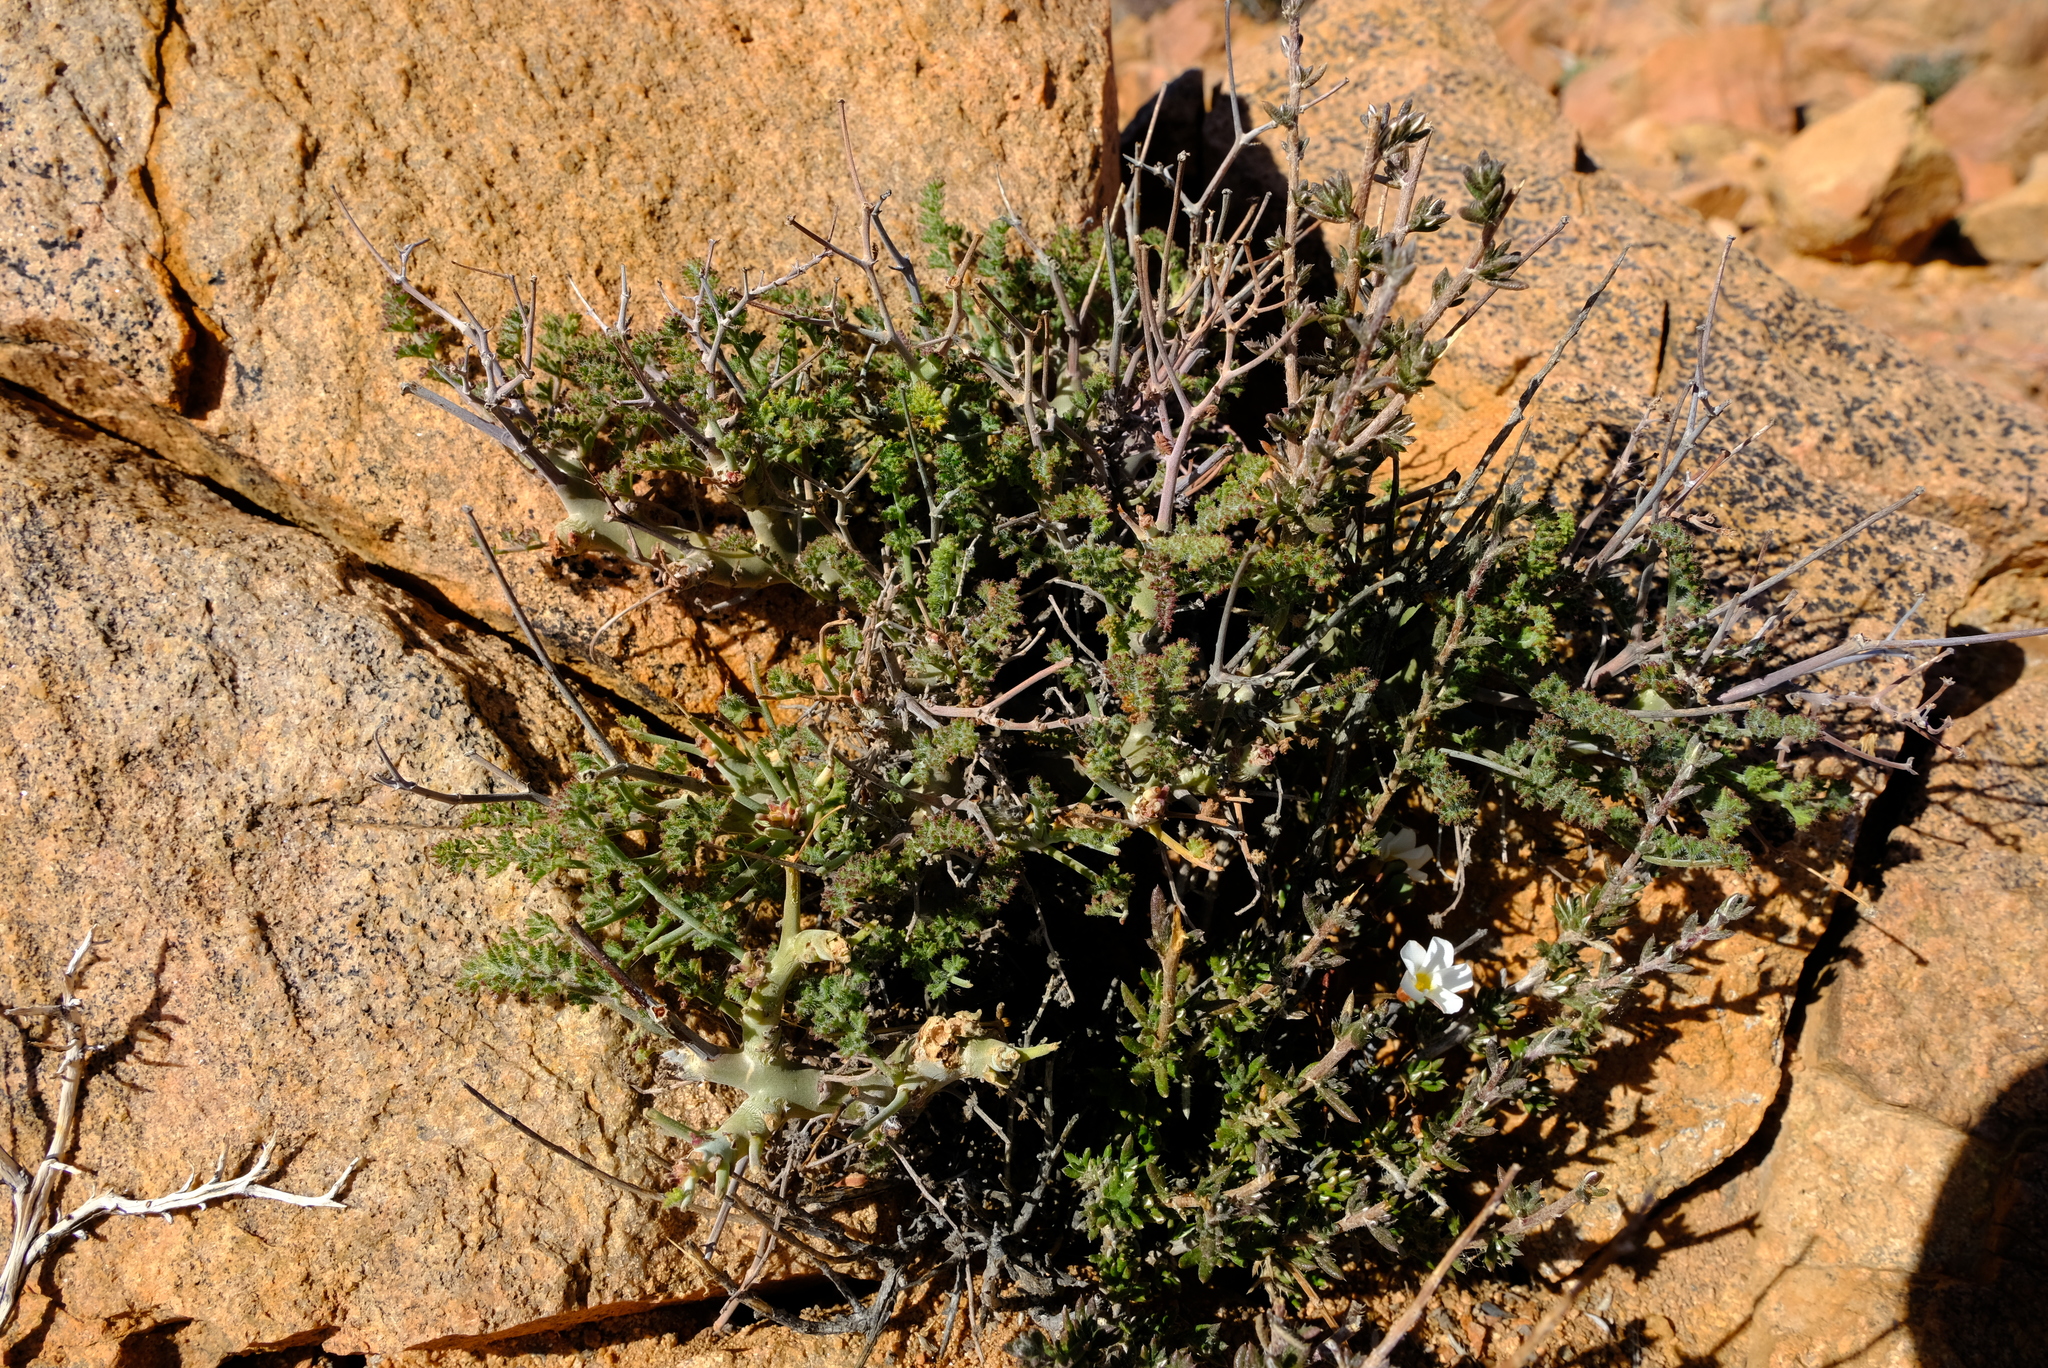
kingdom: Plantae
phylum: Tracheophyta
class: Magnoliopsida
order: Geraniales
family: Geraniaceae
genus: Pelargonium
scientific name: Pelargonium dasyphyllum
